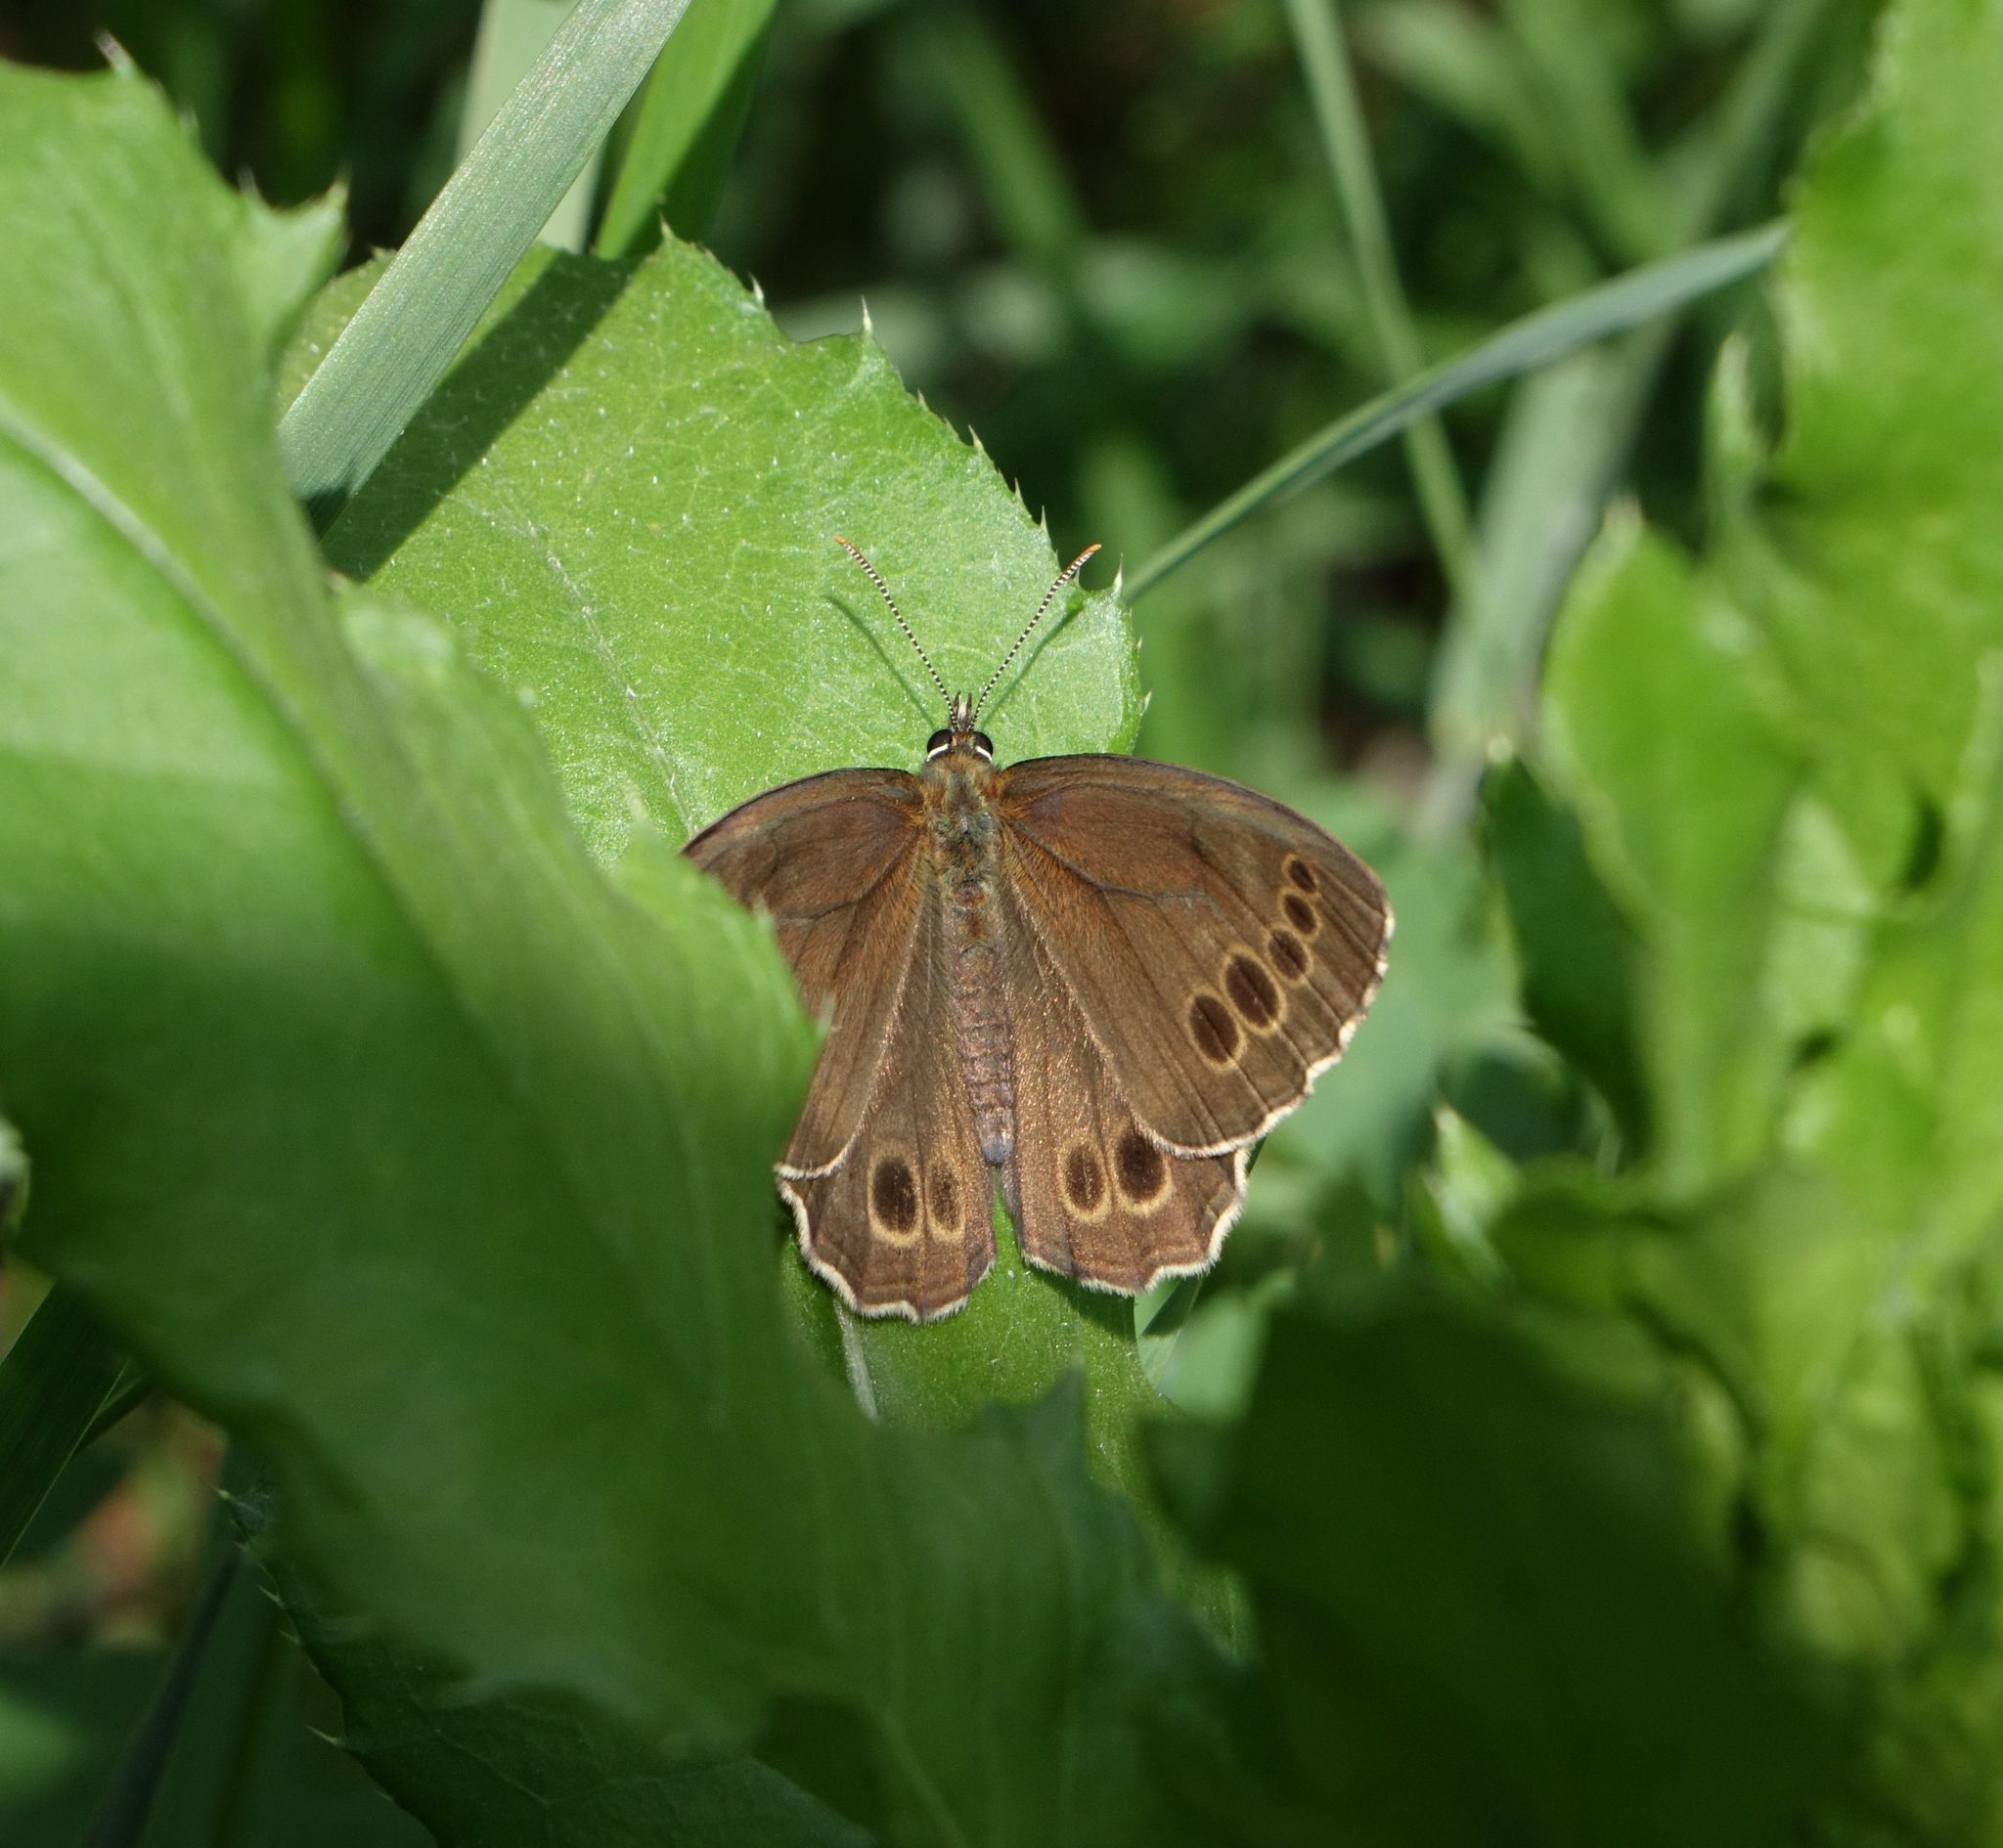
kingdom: Animalia
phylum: Arthropoda
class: Insecta
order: Lepidoptera
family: Nymphalidae
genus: Pararge
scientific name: Pararge Lopinga achine
